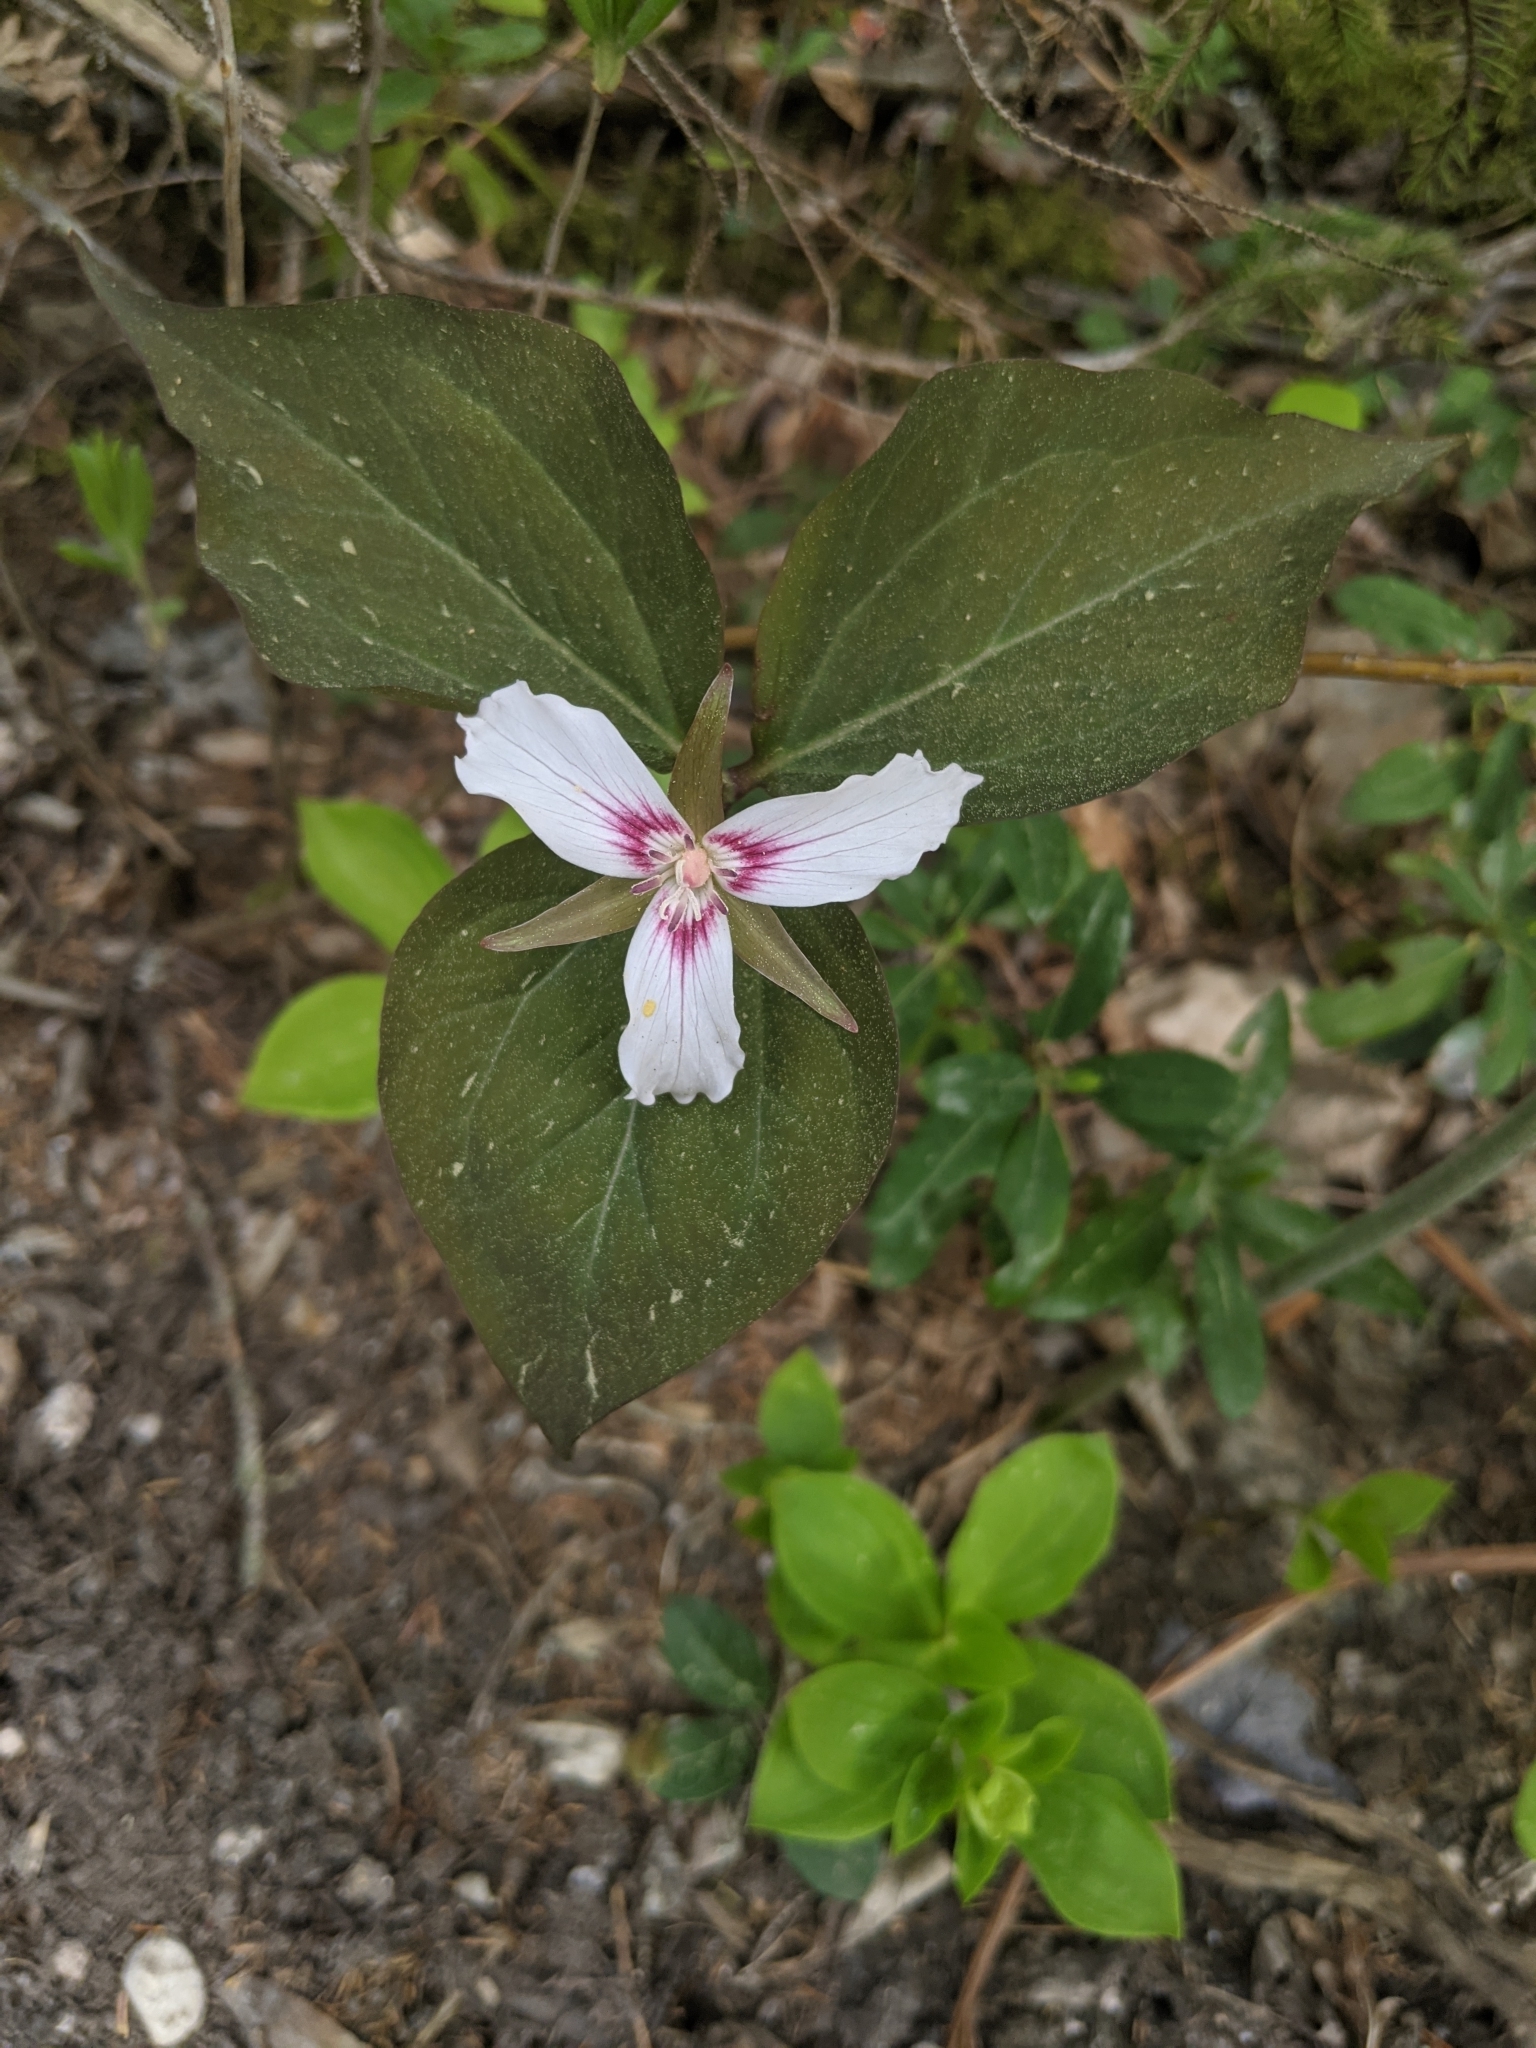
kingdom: Plantae
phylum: Tracheophyta
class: Liliopsida
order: Liliales
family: Melanthiaceae
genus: Trillium
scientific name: Trillium undulatum
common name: Paint trillium
